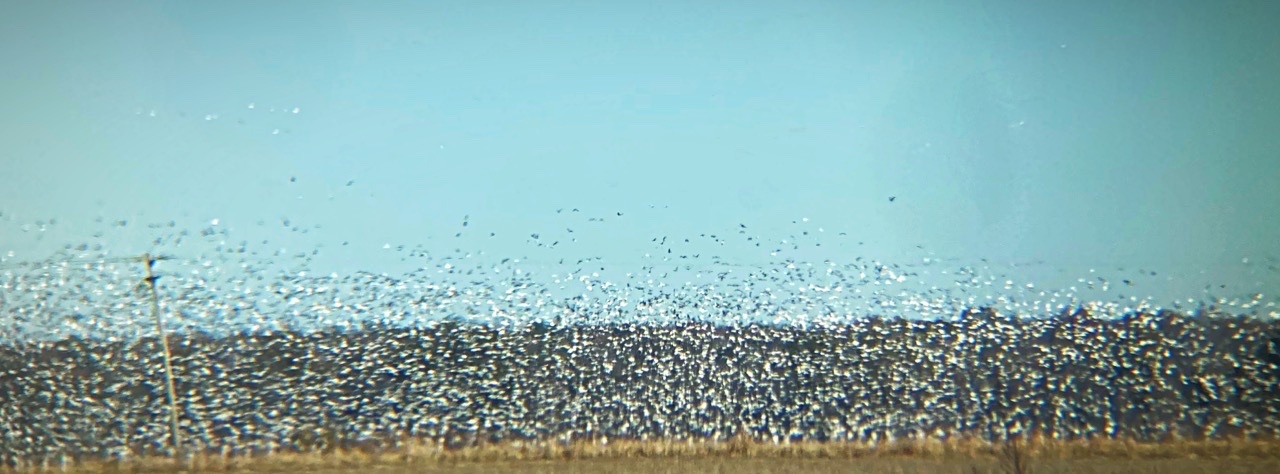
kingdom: Animalia
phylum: Chordata
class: Aves
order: Anseriformes
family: Anatidae
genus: Anser
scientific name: Anser caerulescens
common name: Snow goose
